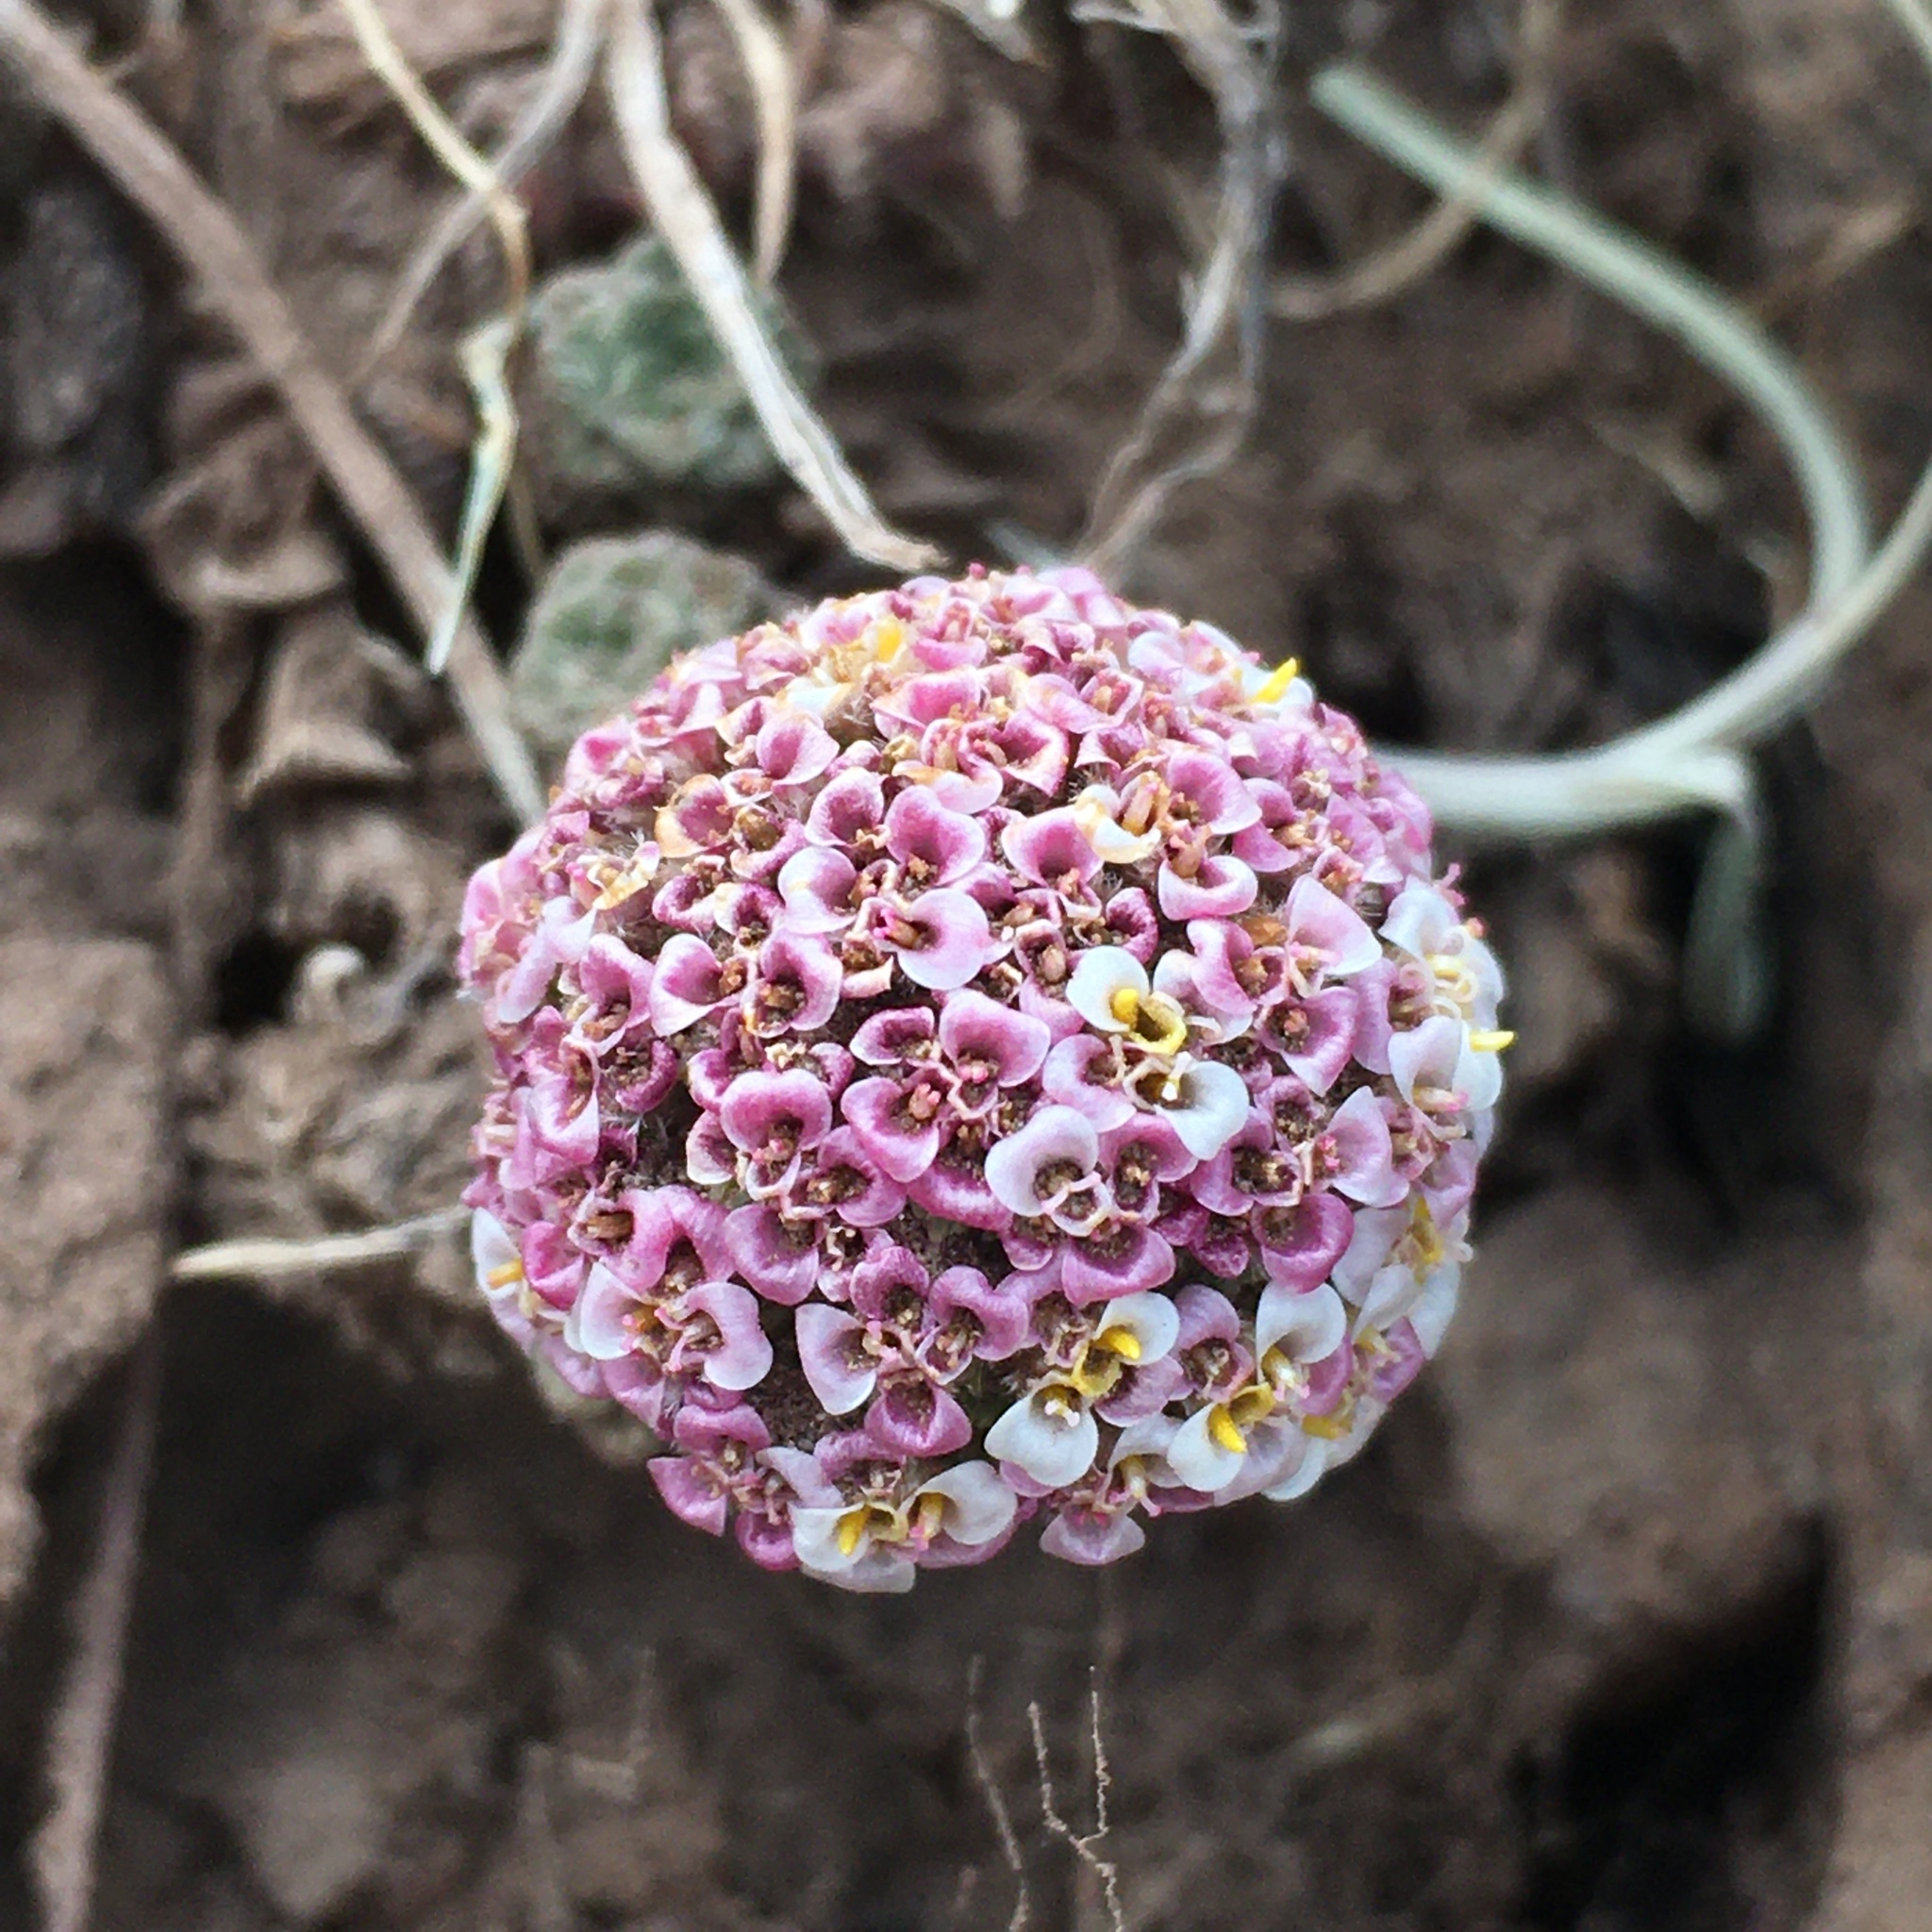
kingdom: Plantae
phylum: Tracheophyta
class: Magnoliopsida
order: Asterales
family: Asteraceae
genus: Nassauvia
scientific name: Nassauvia lagascae
